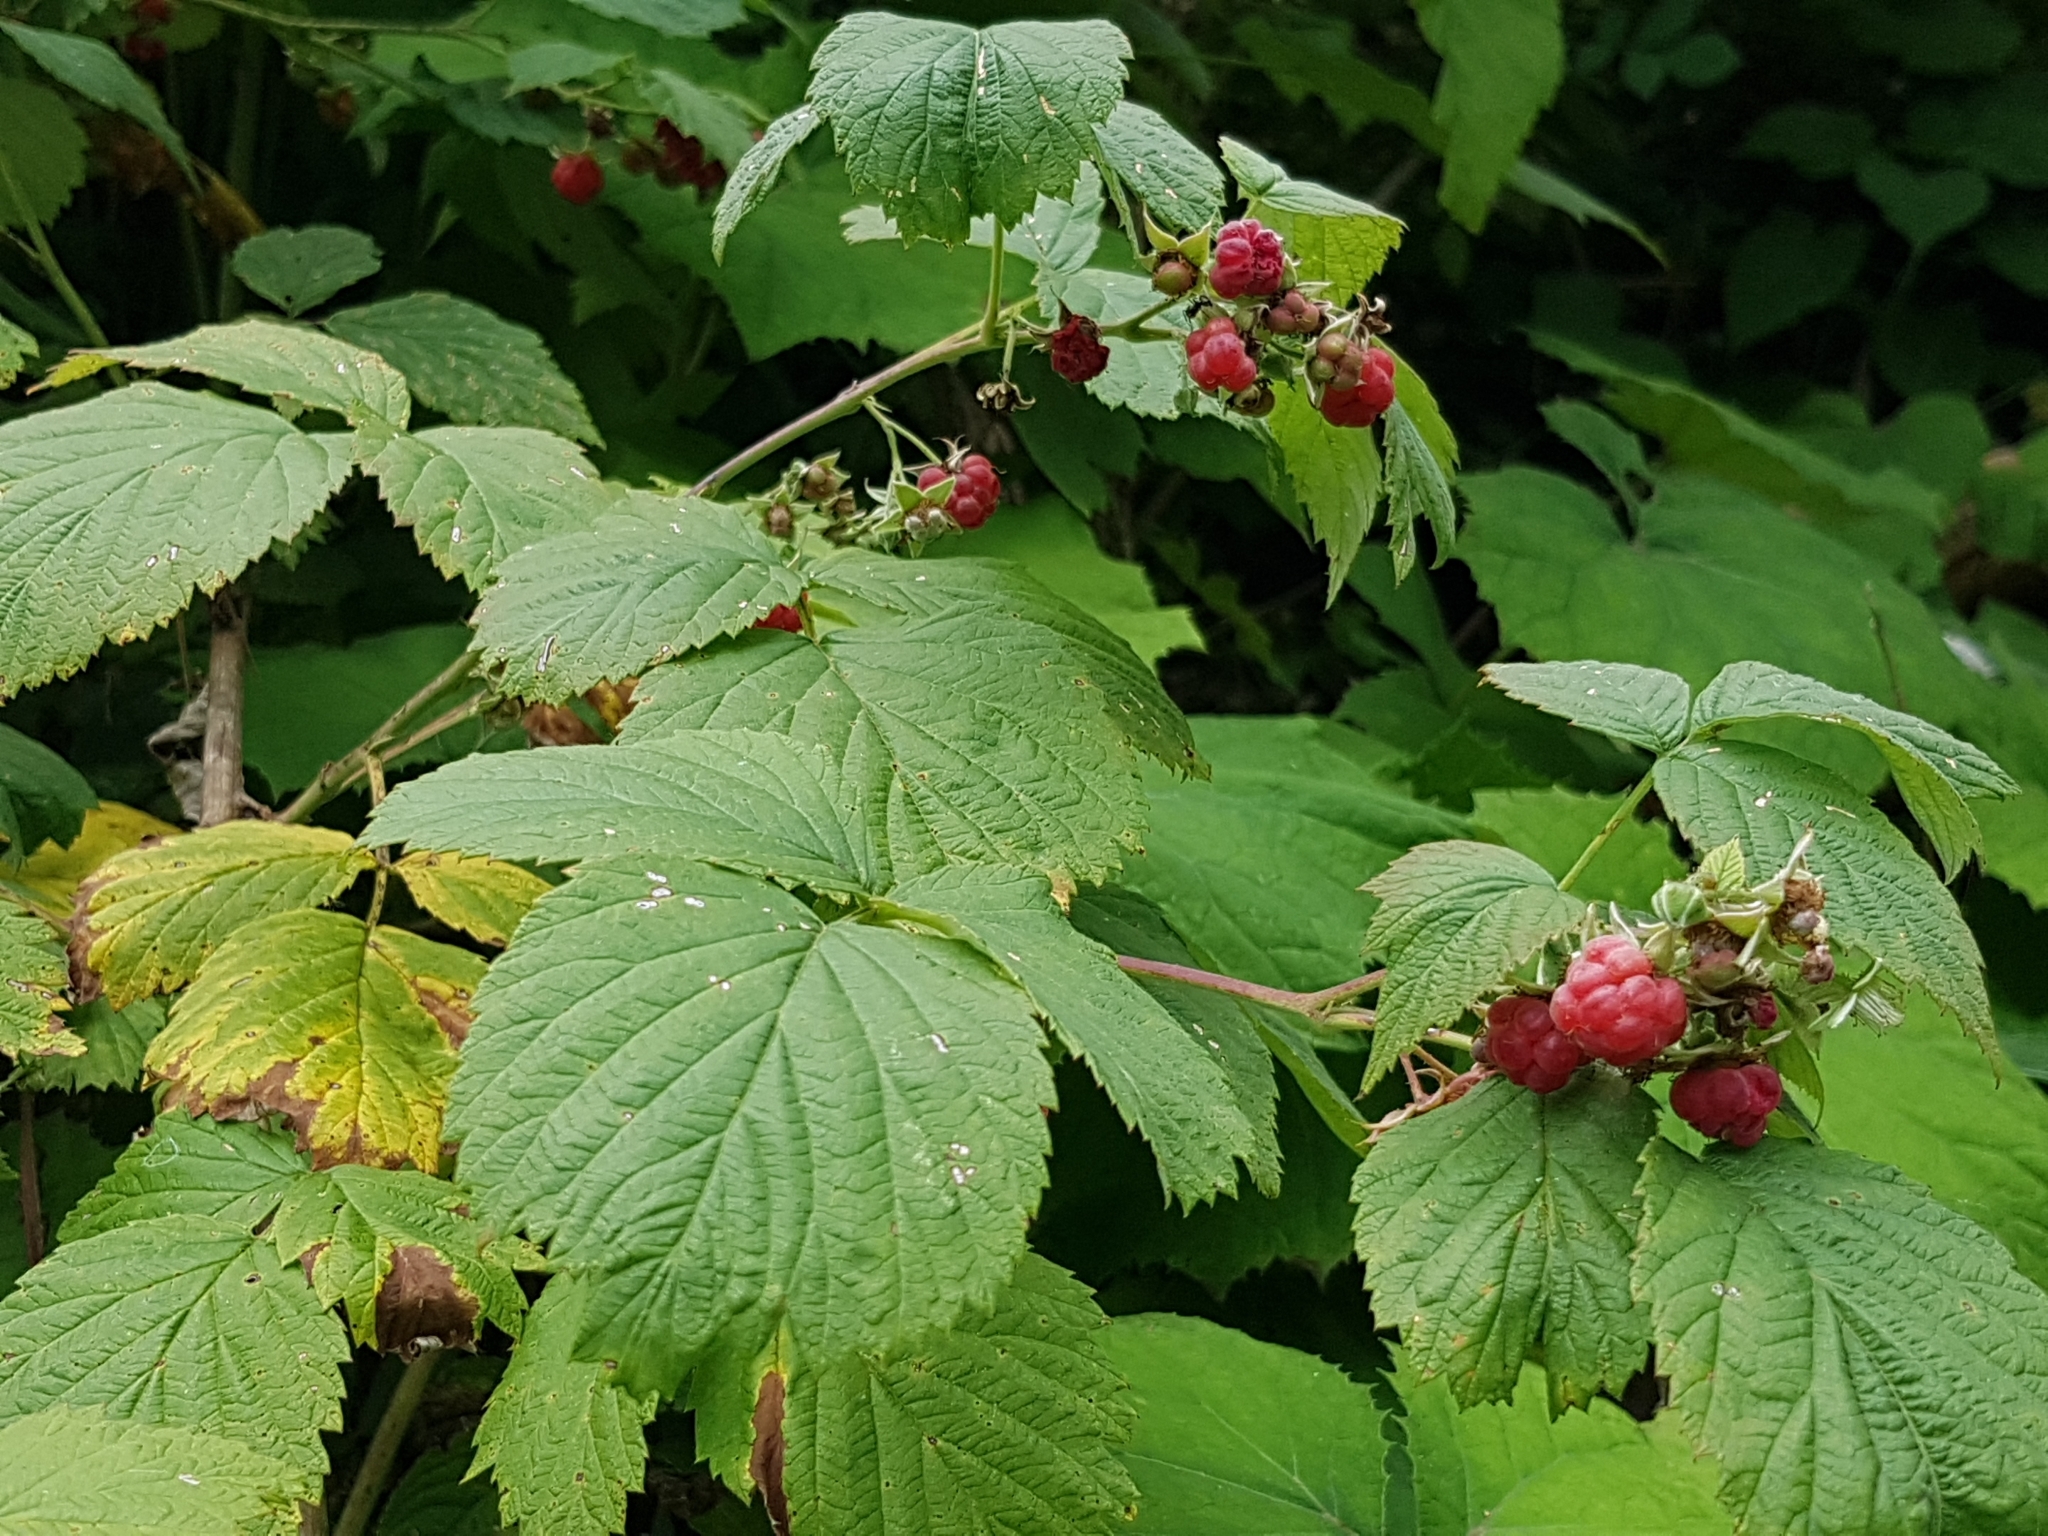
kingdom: Plantae
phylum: Tracheophyta
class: Magnoliopsida
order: Rosales
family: Rosaceae
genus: Rubus
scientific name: Rubus idaeus
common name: Raspberry
